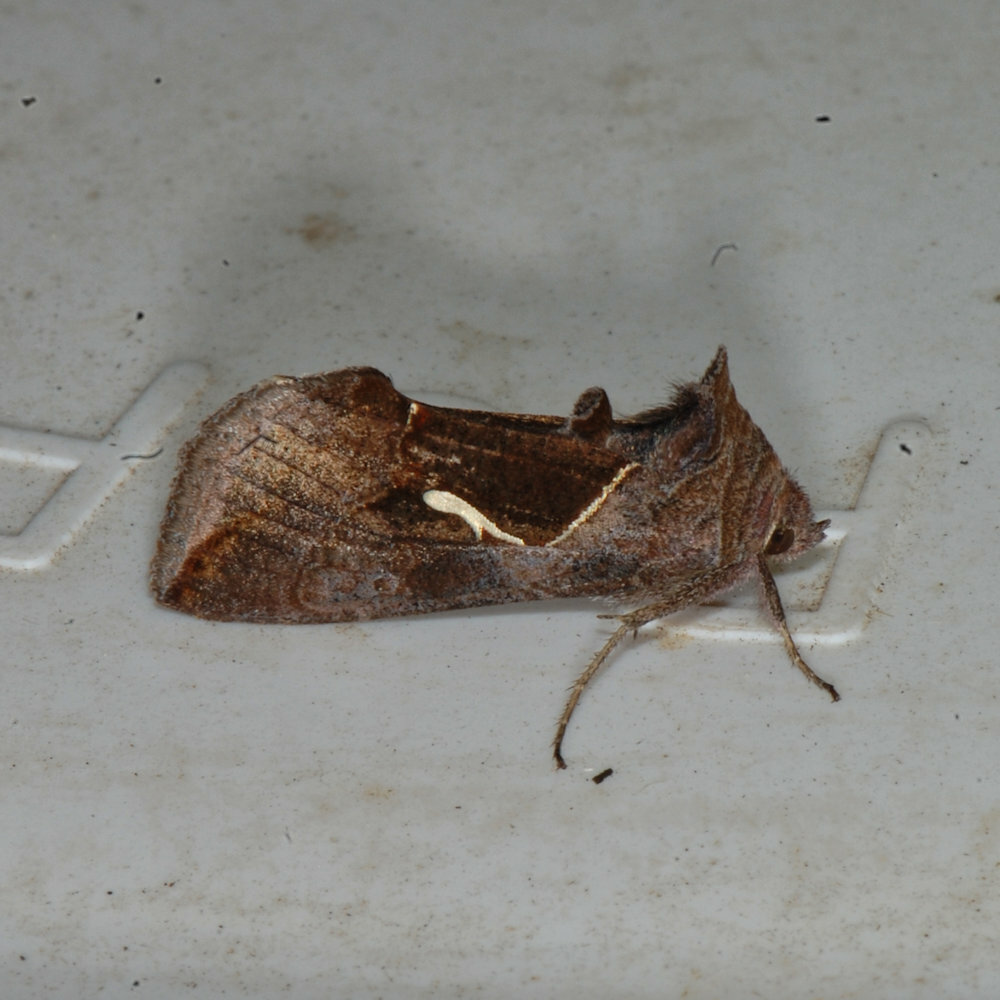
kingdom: Animalia
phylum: Arthropoda
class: Insecta
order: Lepidoptera
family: Noctuidae
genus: Anagrapha
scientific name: Anagrapha falcifera
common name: Celery looper
